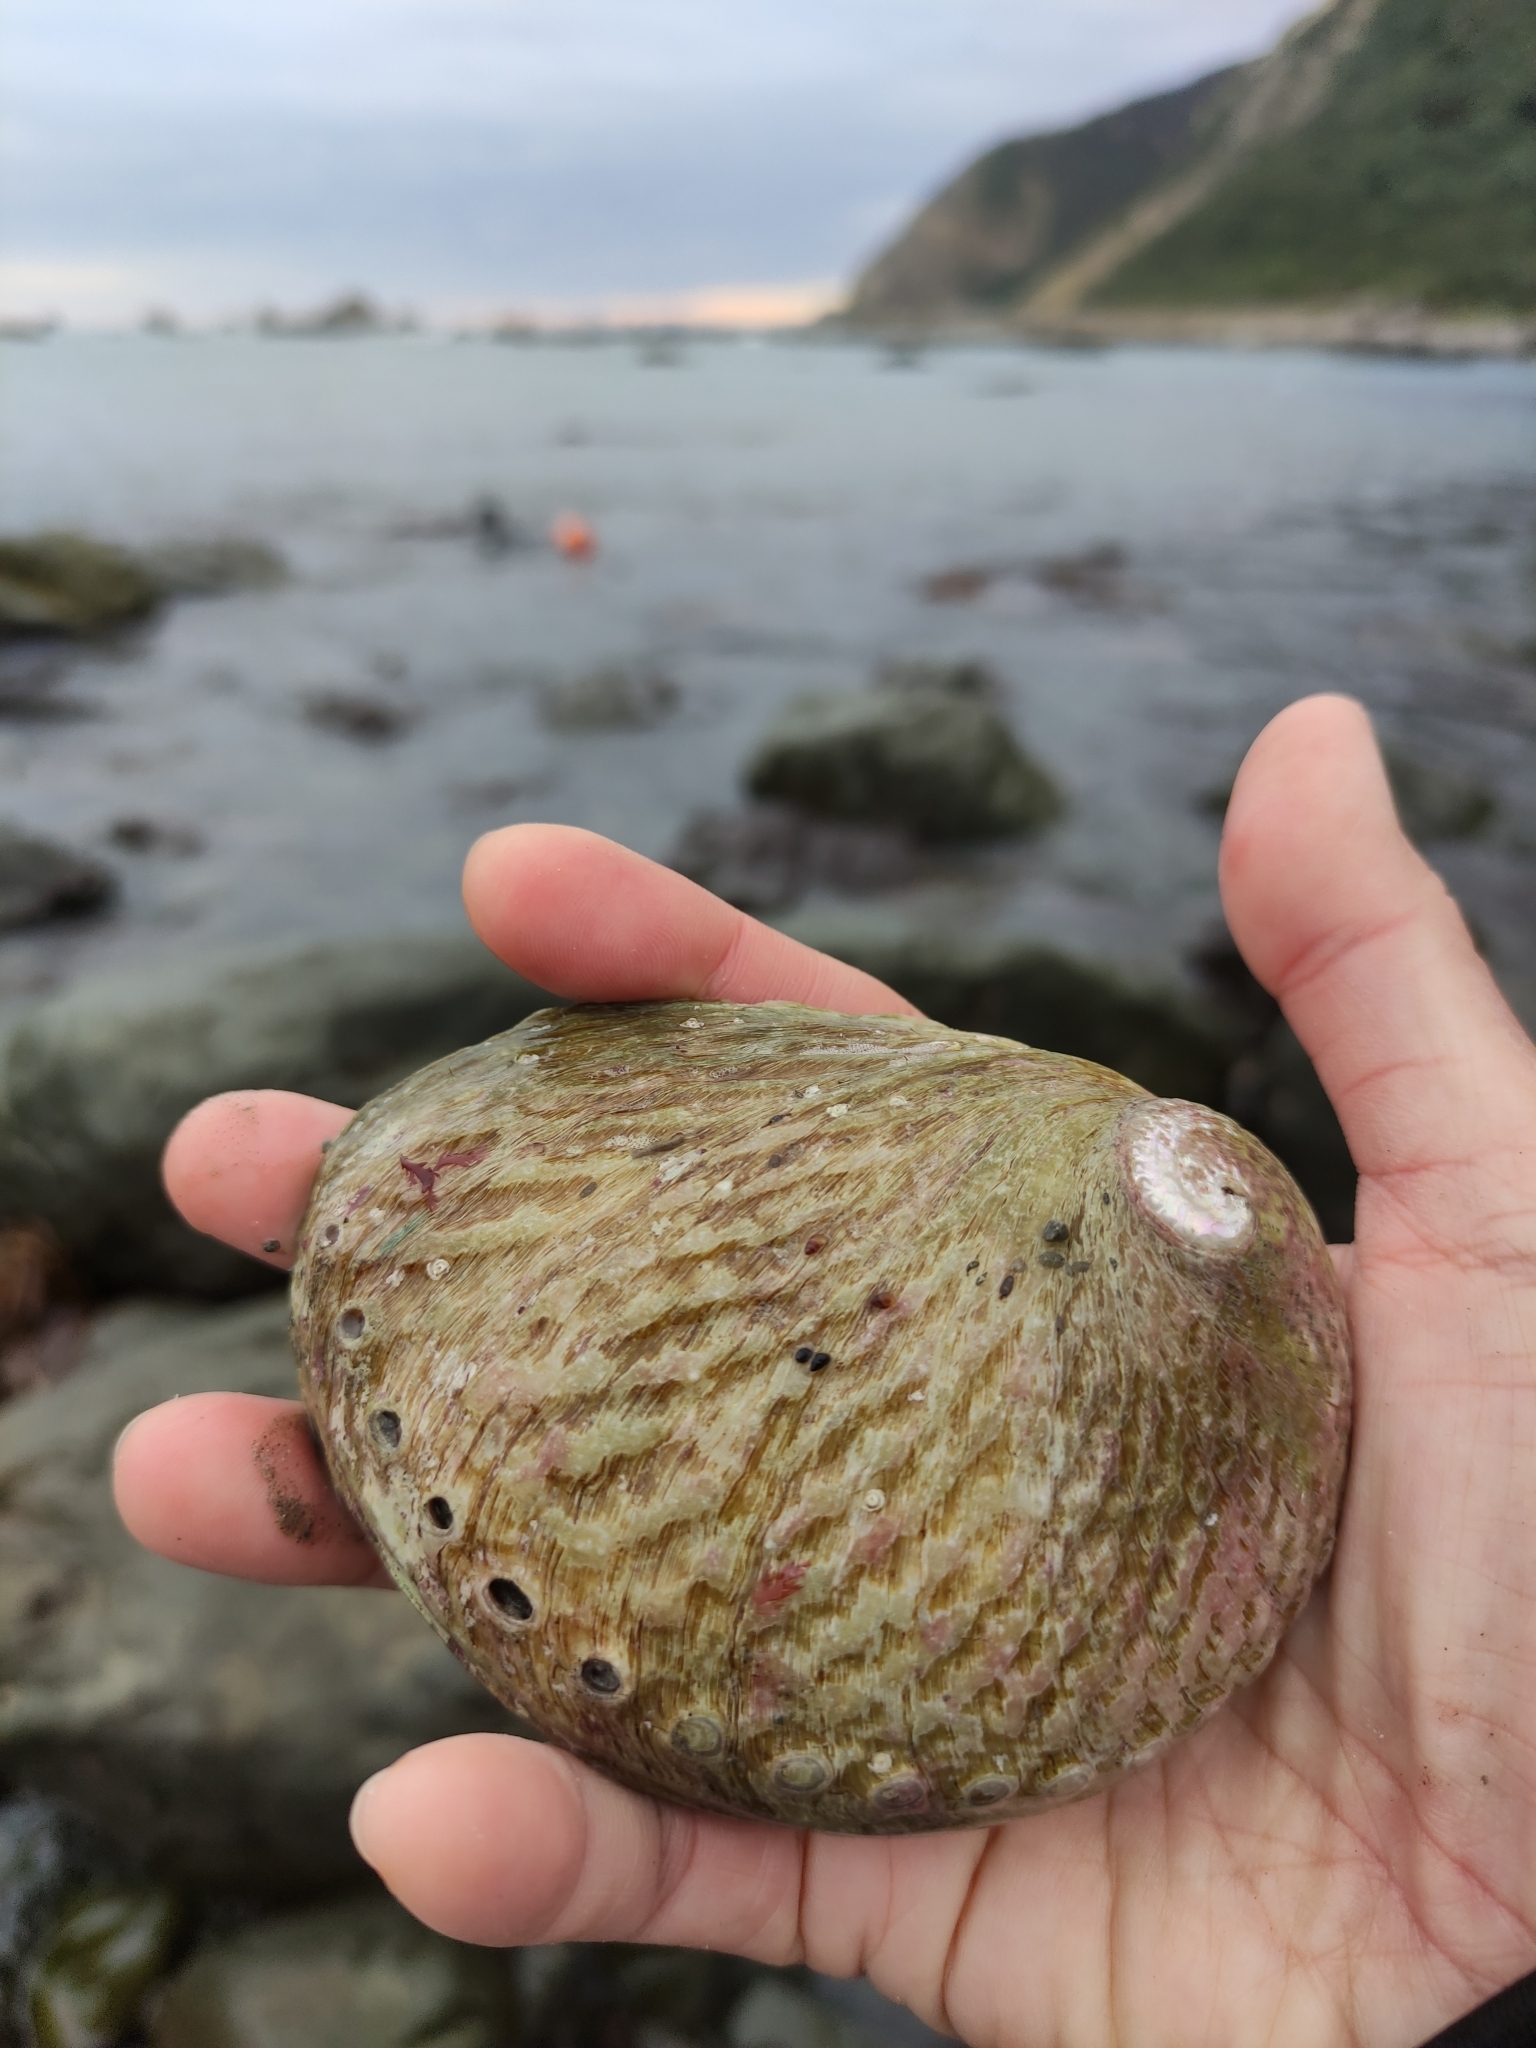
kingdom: Animalia
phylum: Mollusca
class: Gastropoda
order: Lepetellida
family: Haliotidae
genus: Haliotis
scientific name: Haliotis australis
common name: Silver abalone
